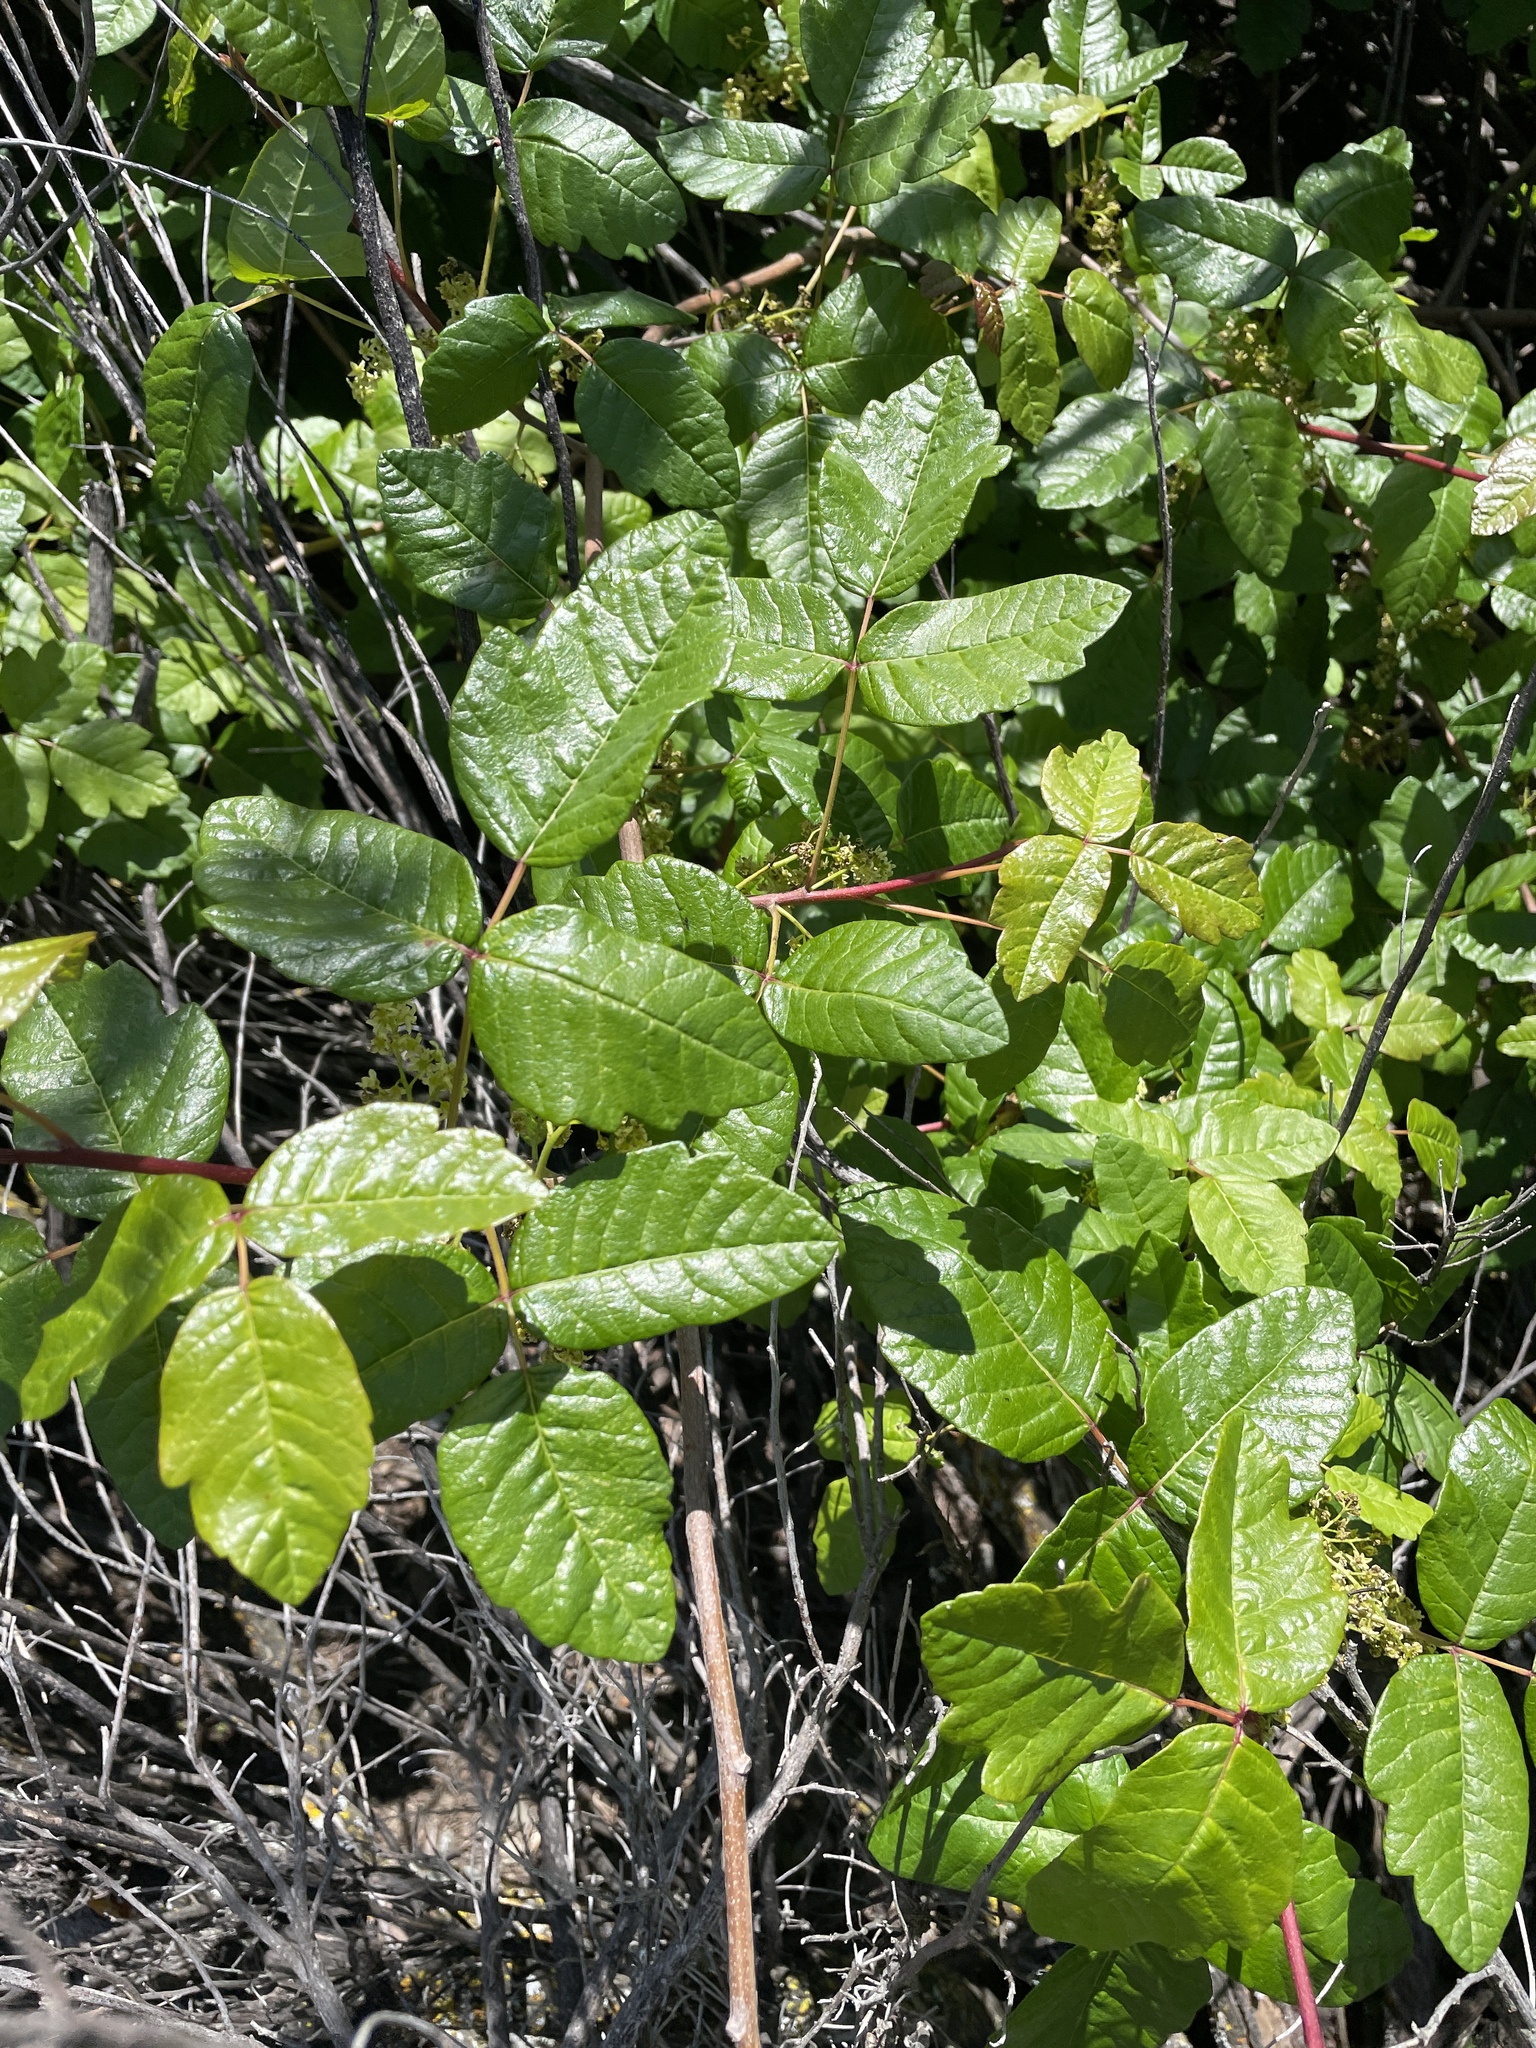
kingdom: Plantae
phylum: Tracheophyta
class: Magnoliopsida
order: Sapindales
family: Anacardiaceae
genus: Toxicodendron
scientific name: Toxicodendron diversilobum
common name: Pacific poison-oak
